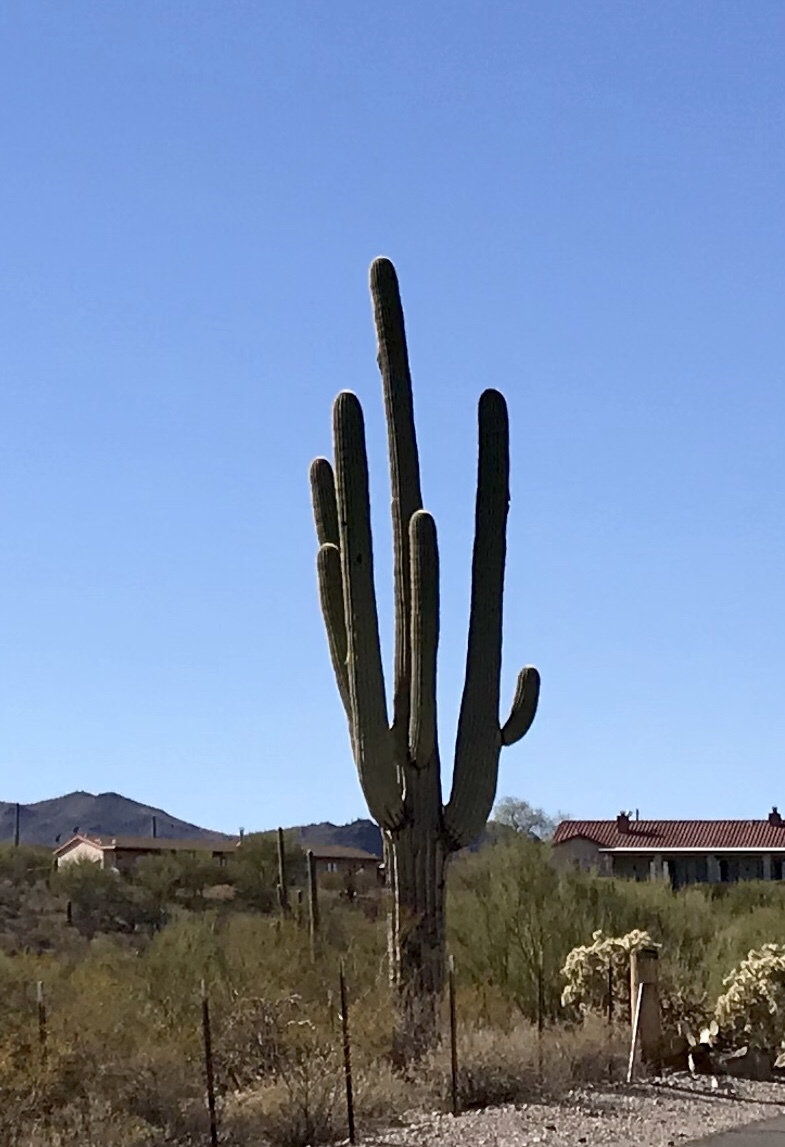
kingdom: Plantae
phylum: Tracheophyta
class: Magnoliopsida
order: Caryophyllales
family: Cactaceae
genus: Carnegiea
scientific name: Carnegiea gigantea
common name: Saguaro
